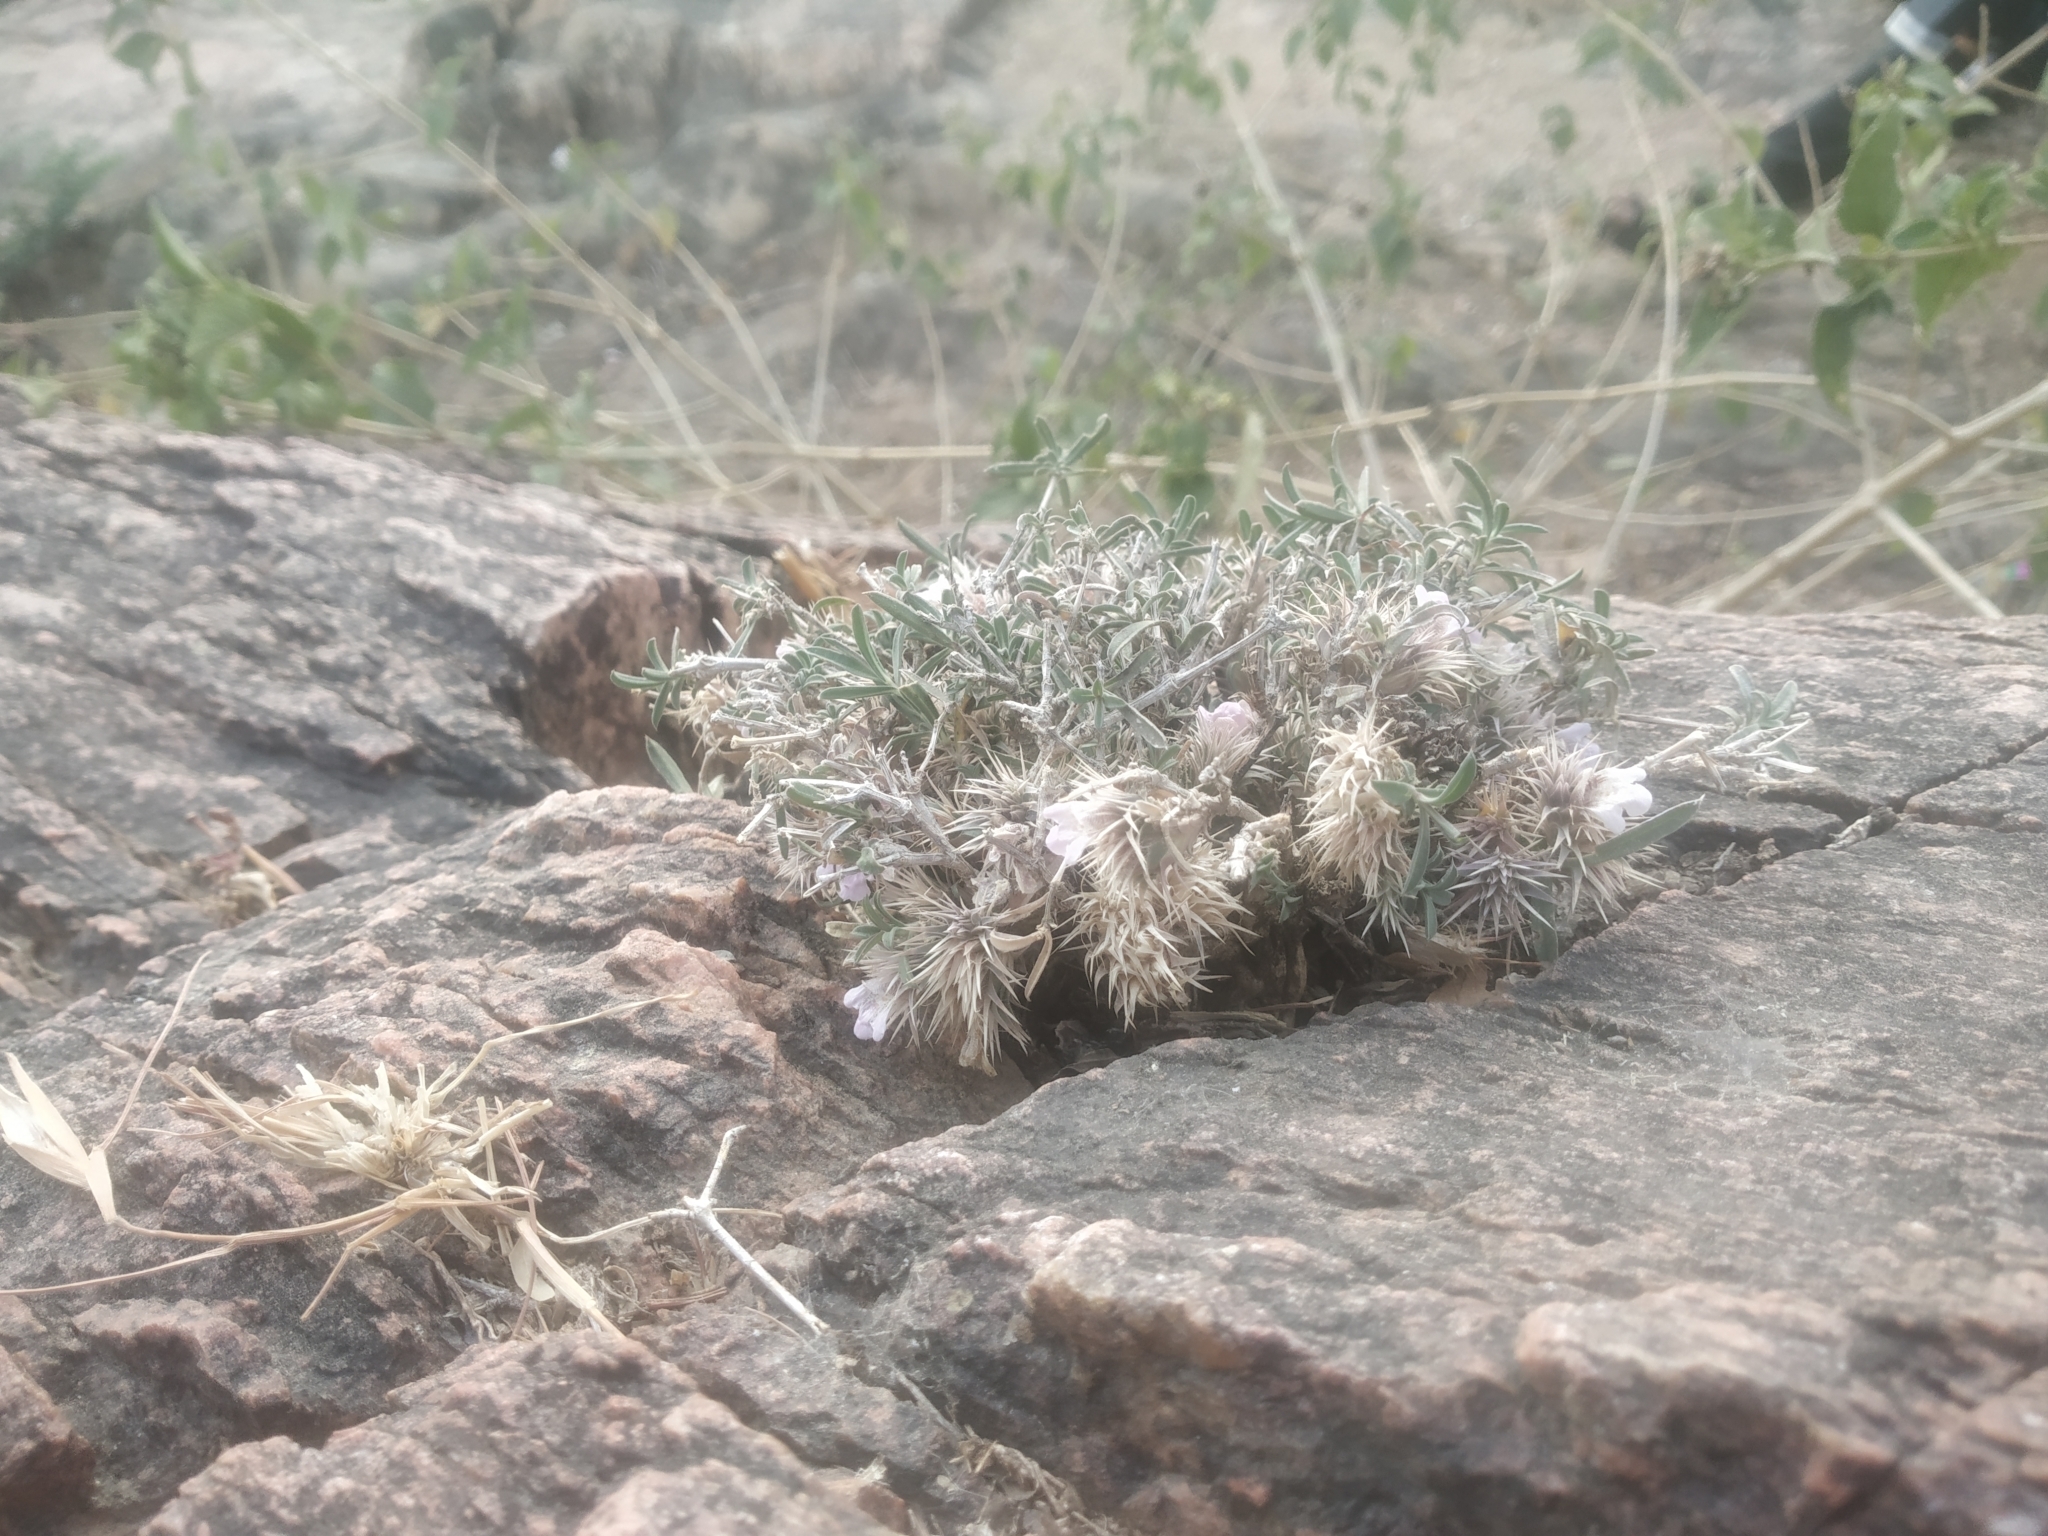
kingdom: Plantae
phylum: Tracheophyta
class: Magnoliopsida
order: Lamiales
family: Acanthaceae
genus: Lepidagathis
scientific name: Lepidagathis trinervis
